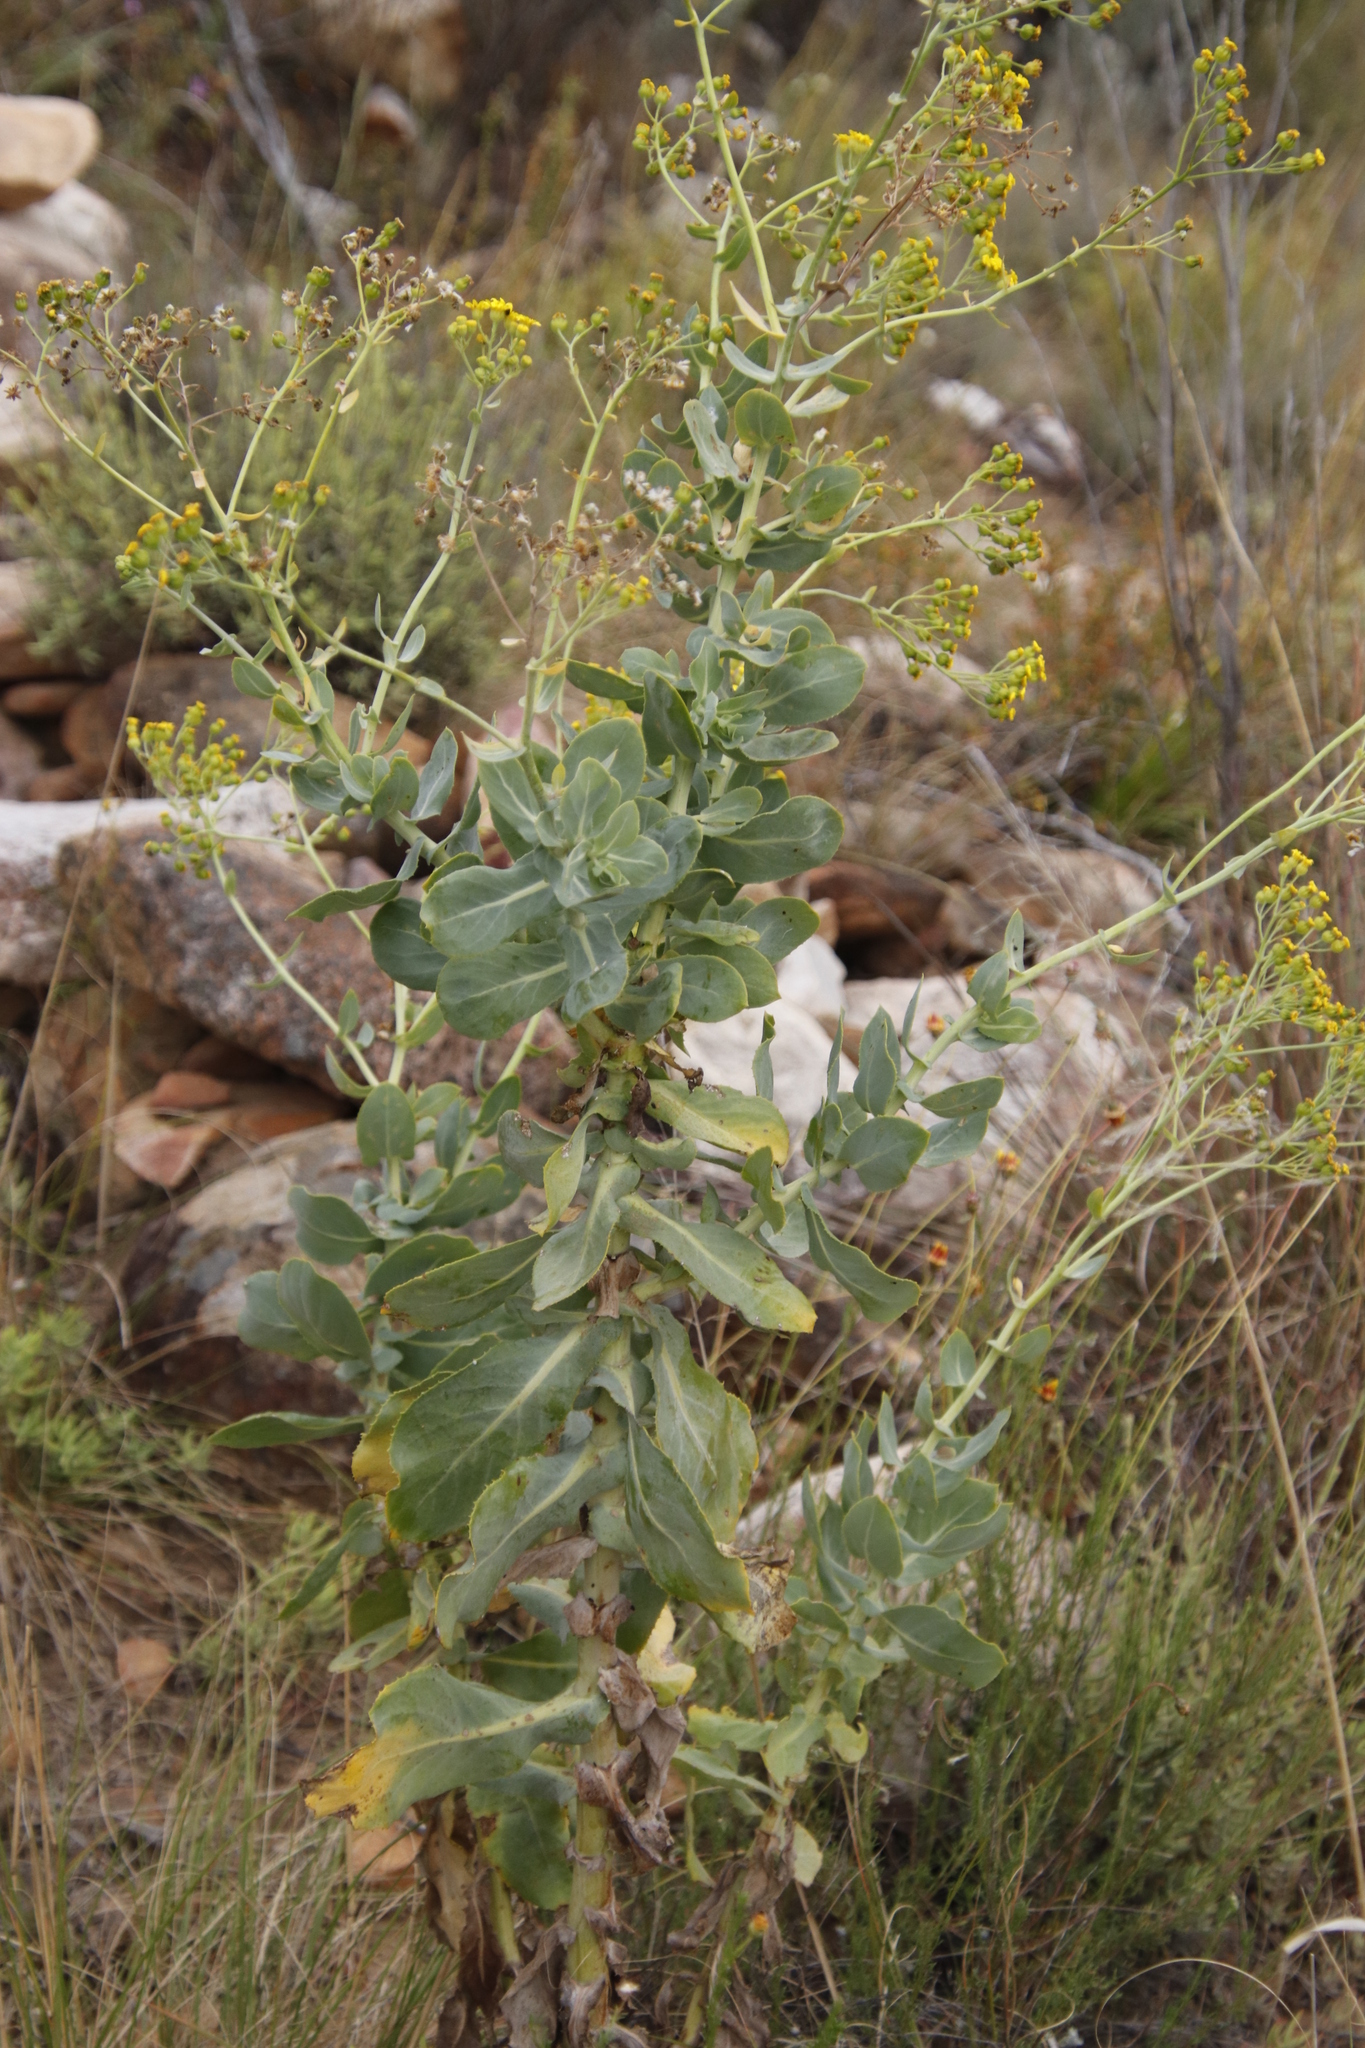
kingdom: Plantae
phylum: Tracheophyta
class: Magnoliopsida
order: Asterales
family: Asteraceae
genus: Othonna
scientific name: Othonna parviflora
